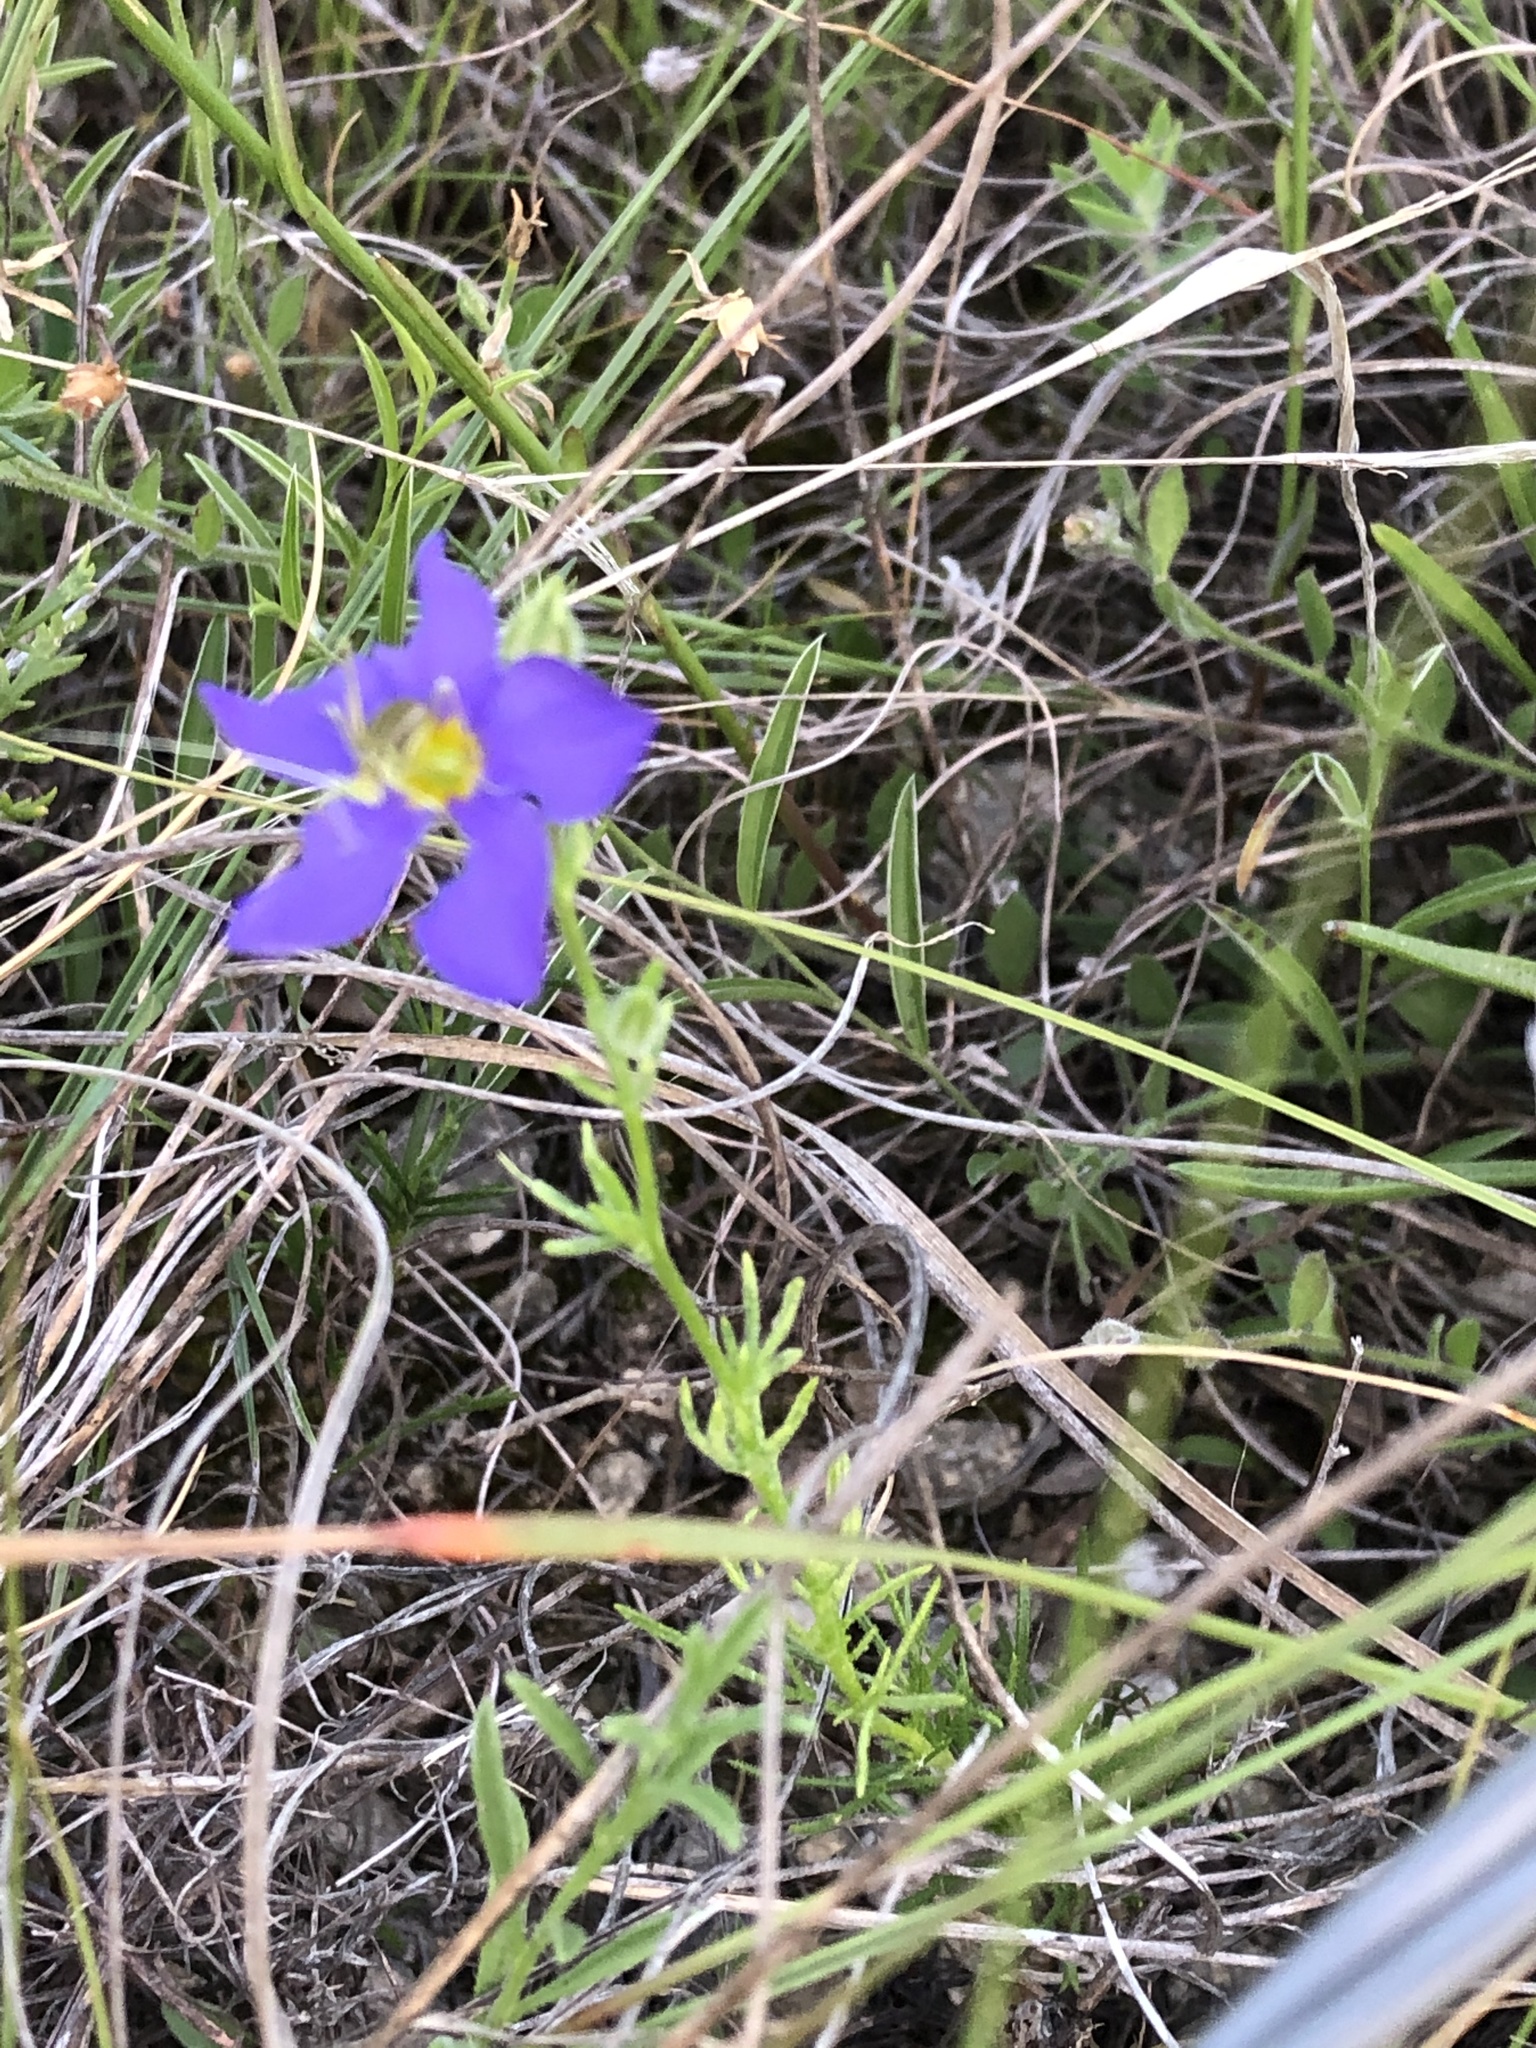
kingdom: Plantae
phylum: Tracheophyta
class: Magnoliopsida
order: Ericales
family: Polemoniaceae
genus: Giliastrum
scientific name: Giliastrum rigidulum
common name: Bluebowls
